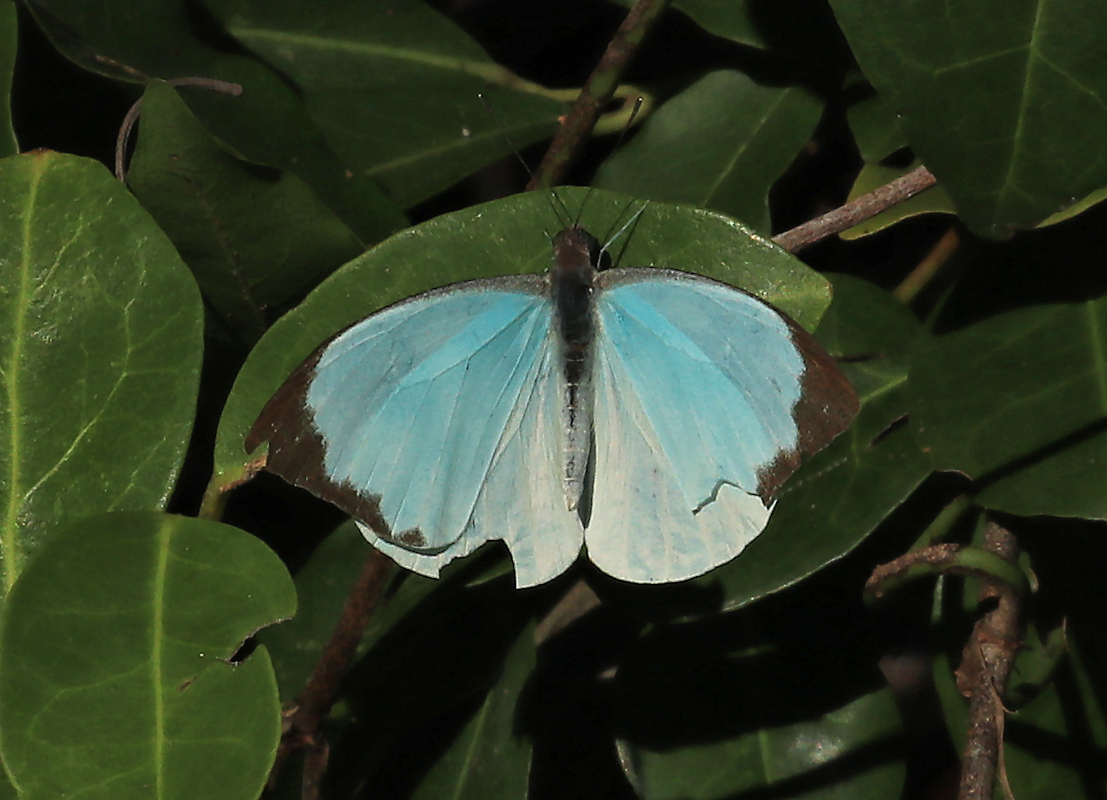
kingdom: Animalia
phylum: Arthropoda
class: Insecta
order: Lepidoptera
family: Pieridae
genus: Nepheronia
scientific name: Nepheronia thalassina
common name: Cambridge vagrant
